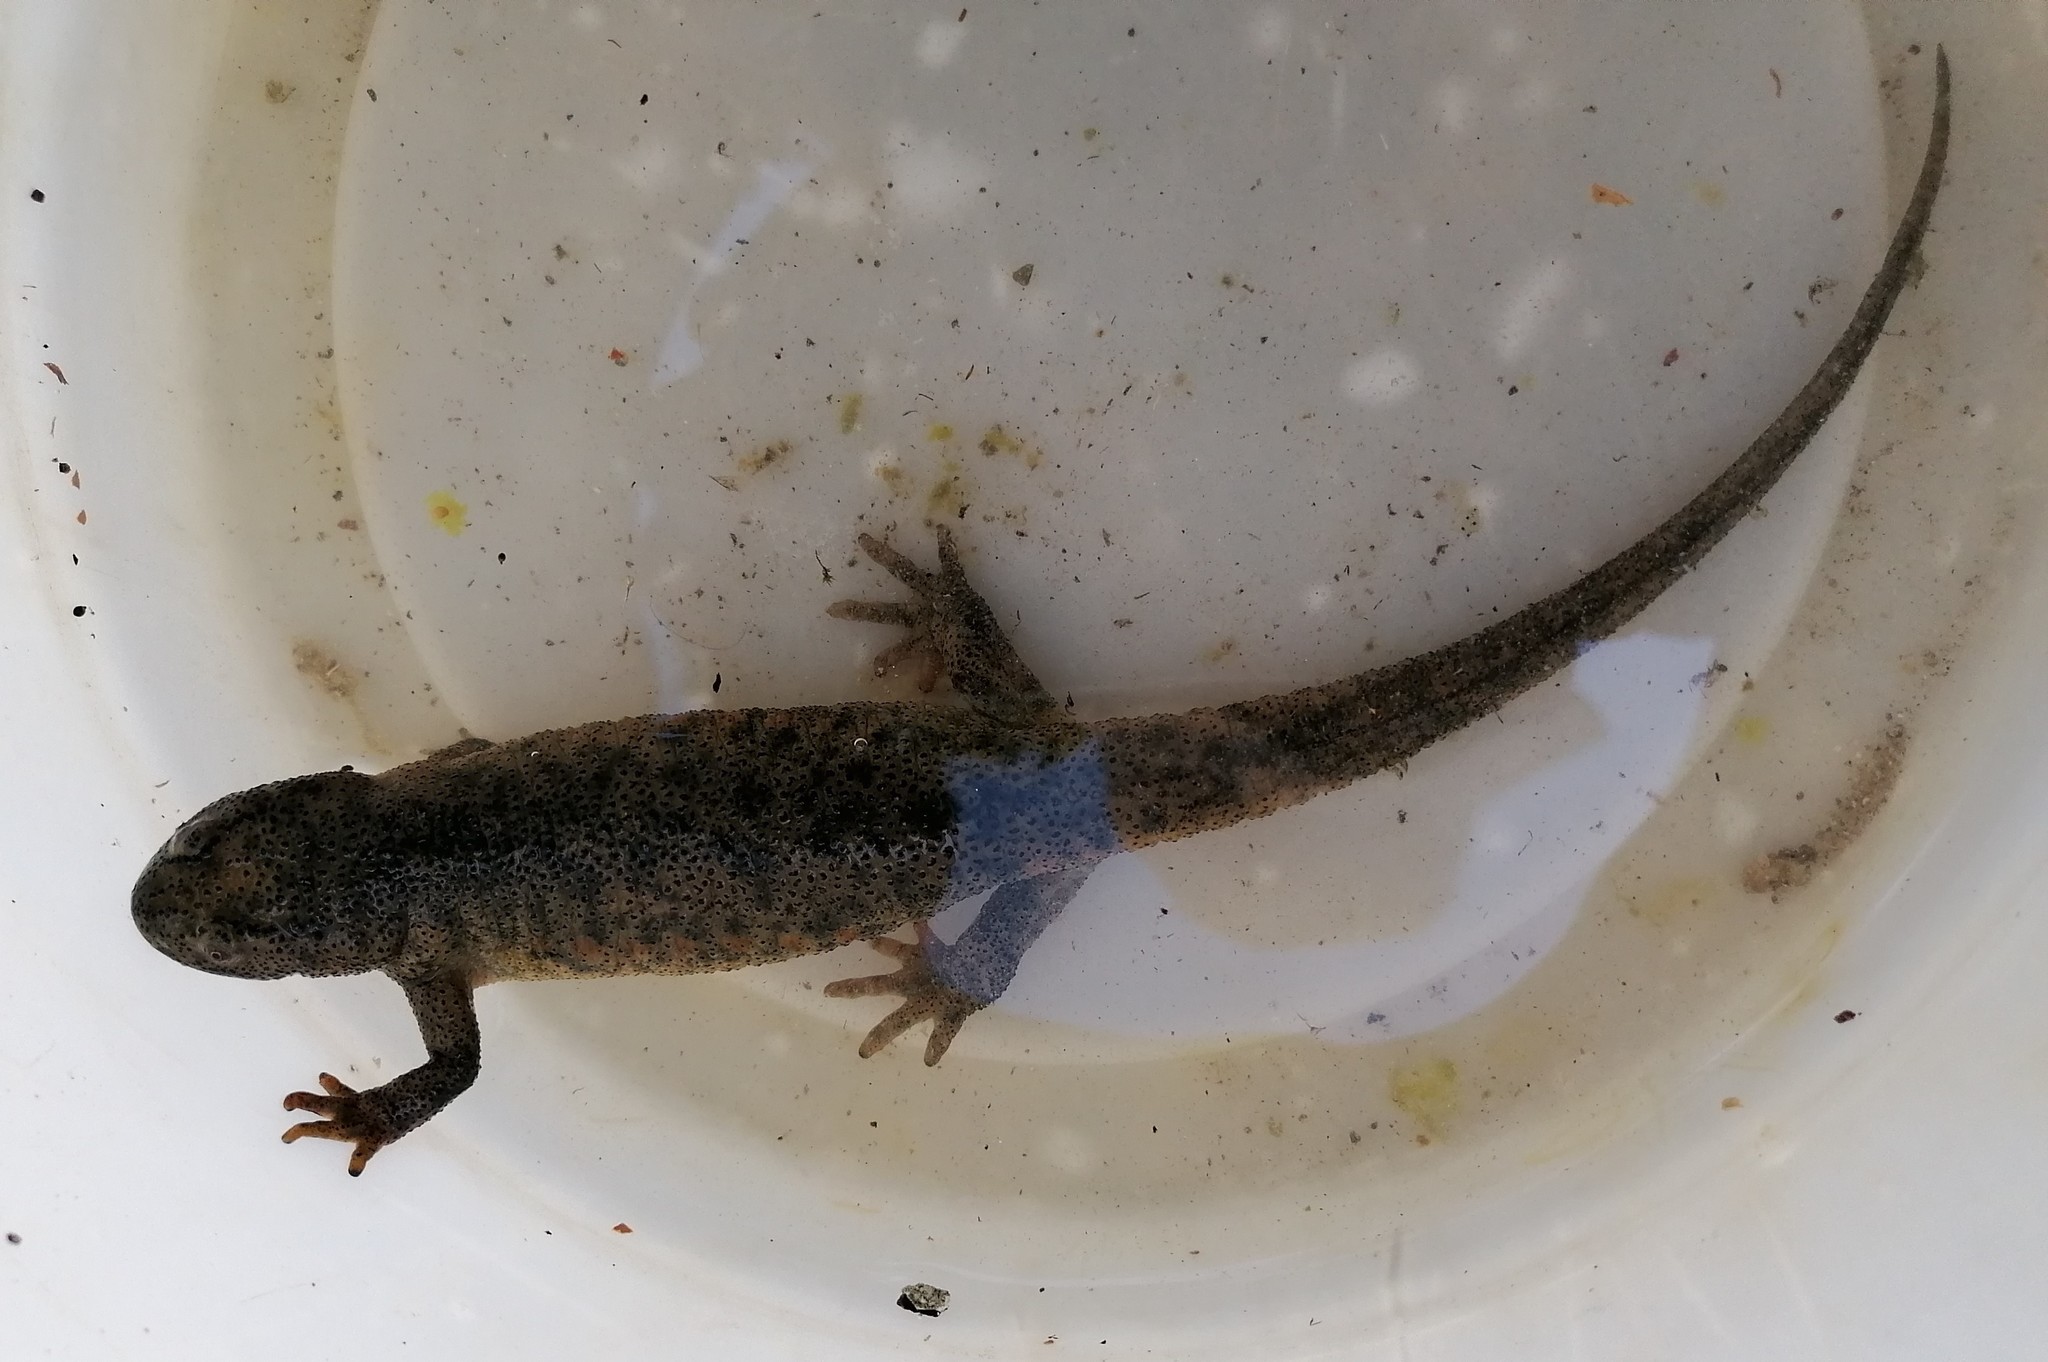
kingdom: Animalia
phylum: Chordata
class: Amphibia
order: Caudata
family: Salamandridae
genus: Pleurodeles
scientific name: Pleurodeles waltl
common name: Iberian ribbed newt
